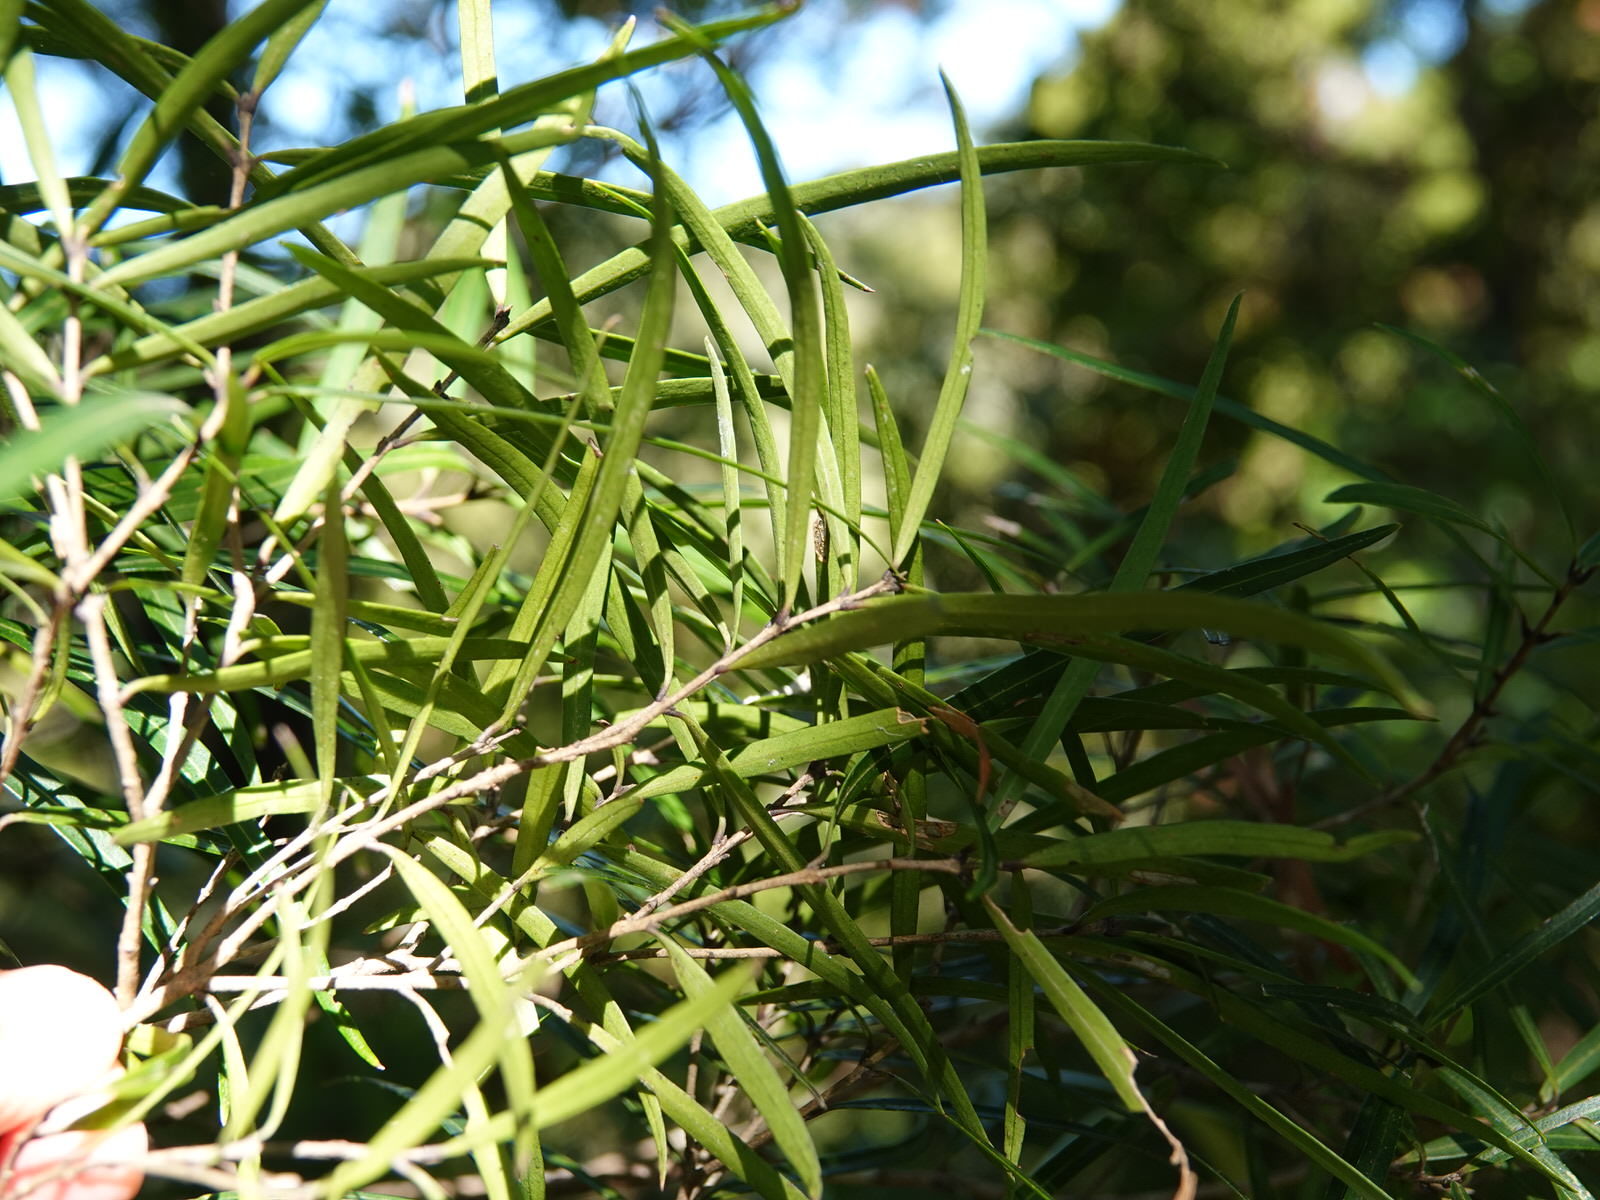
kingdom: Plantae
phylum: Tracheophyta
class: Magnoliopsida
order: Lamiales
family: Oleaceae
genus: Nestegis
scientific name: Nestegis montana
